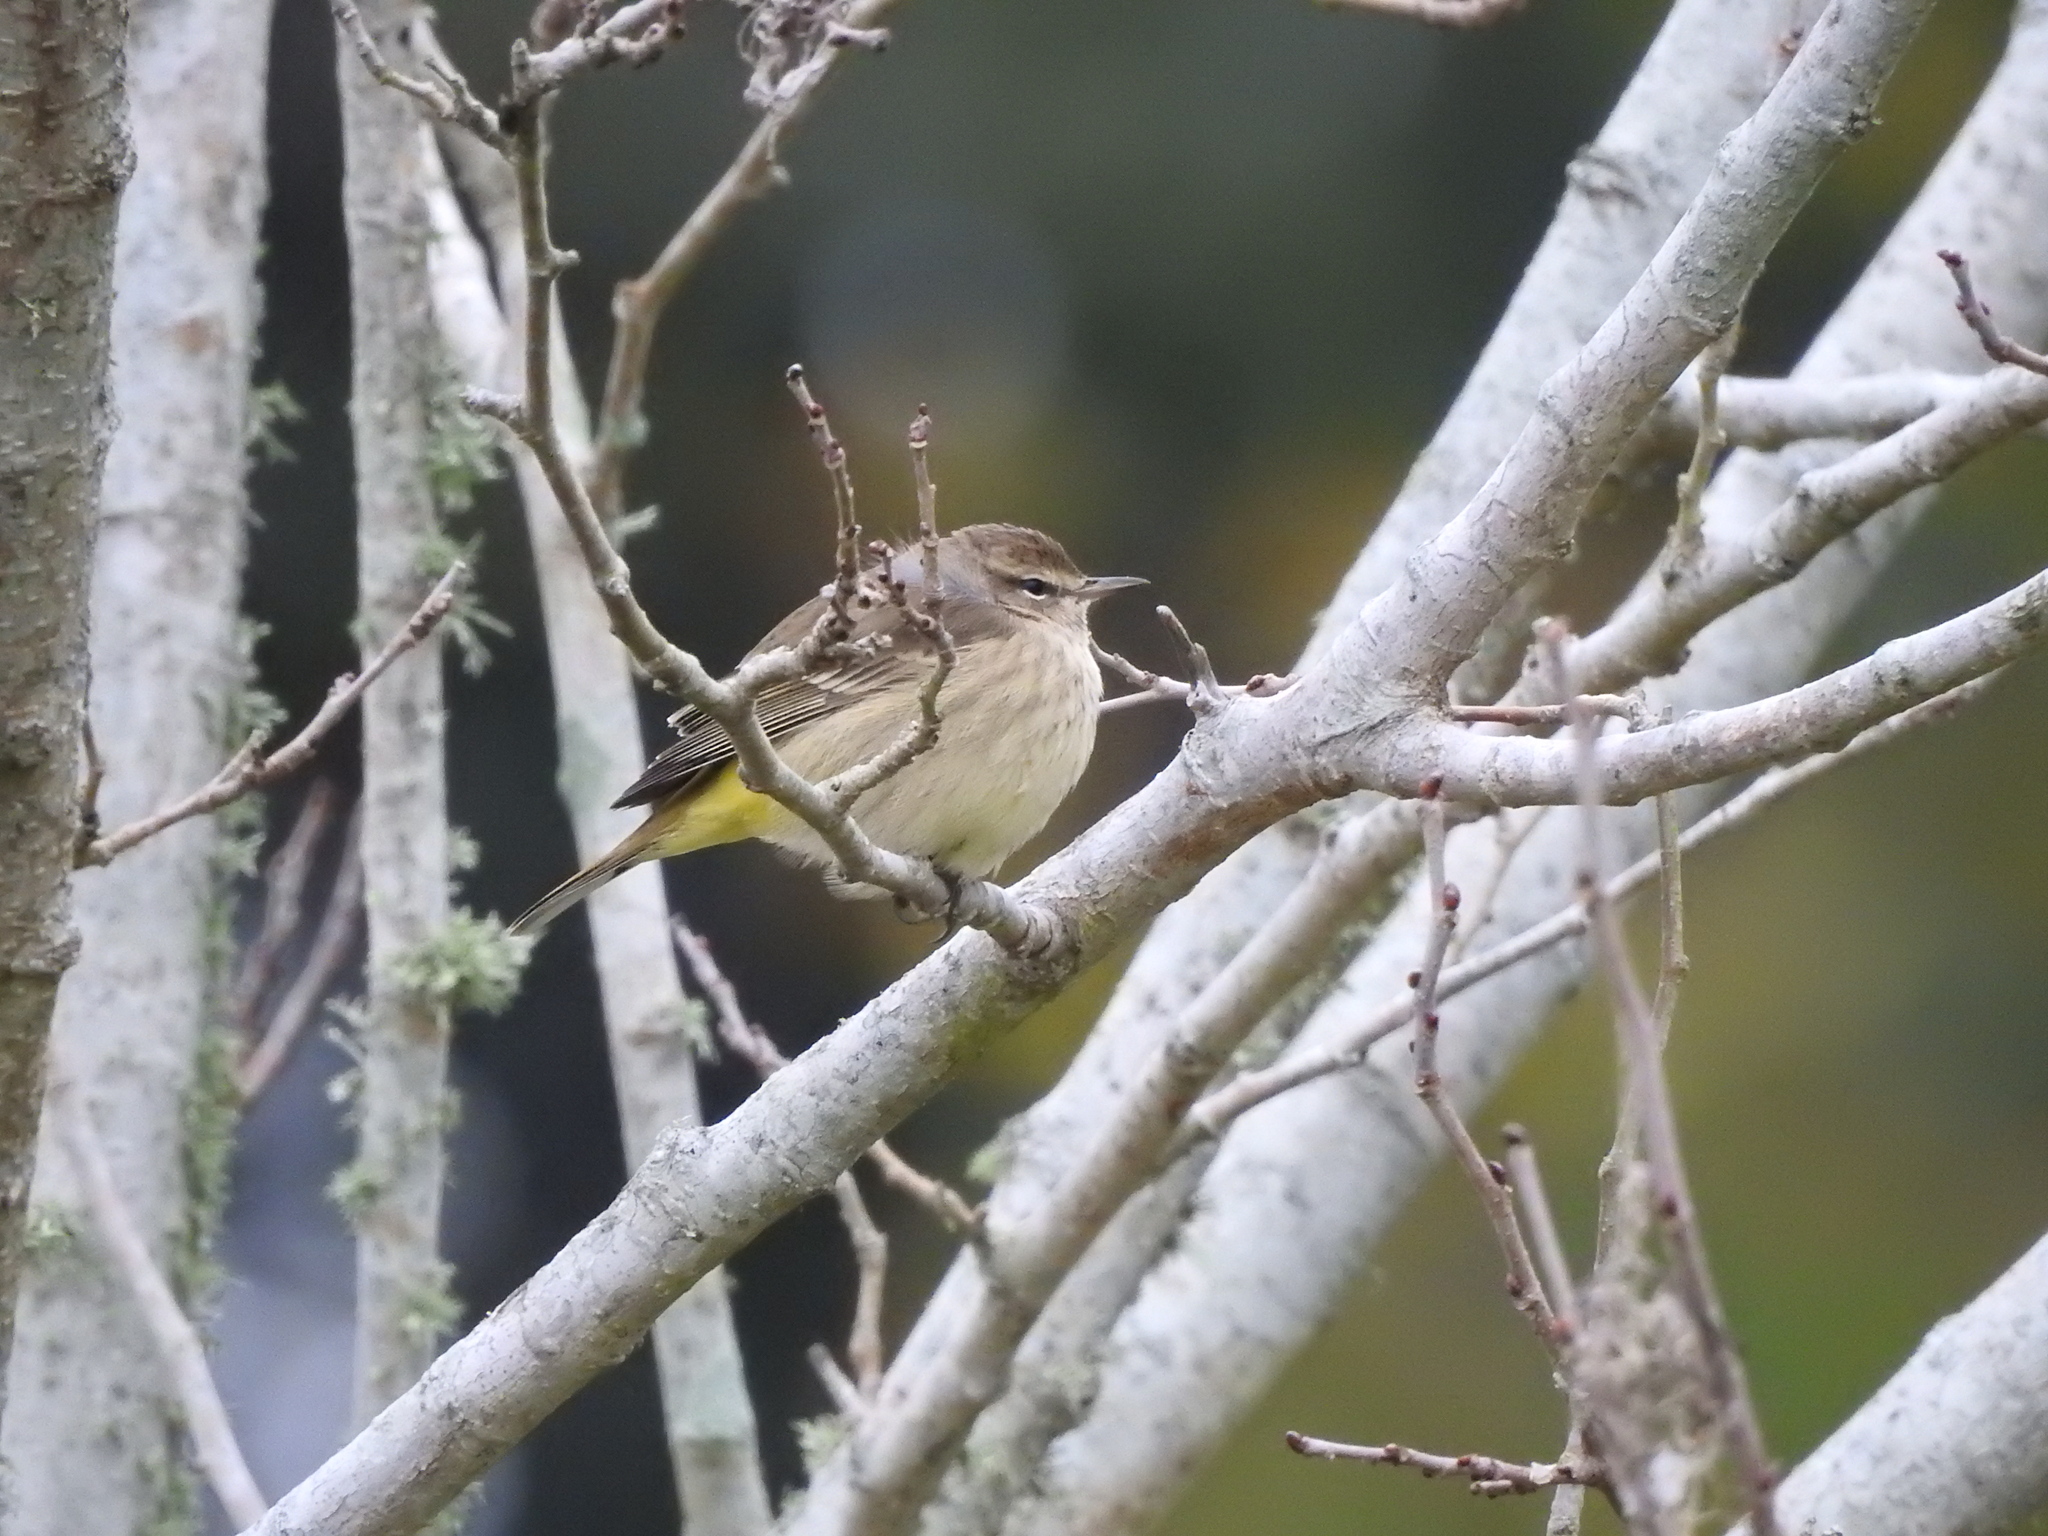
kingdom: Animalia
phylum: Chordata
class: Aves
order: Passeriformes
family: Parulidae
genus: Setophaga
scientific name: Setophaga palmarum
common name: Palm warbler
